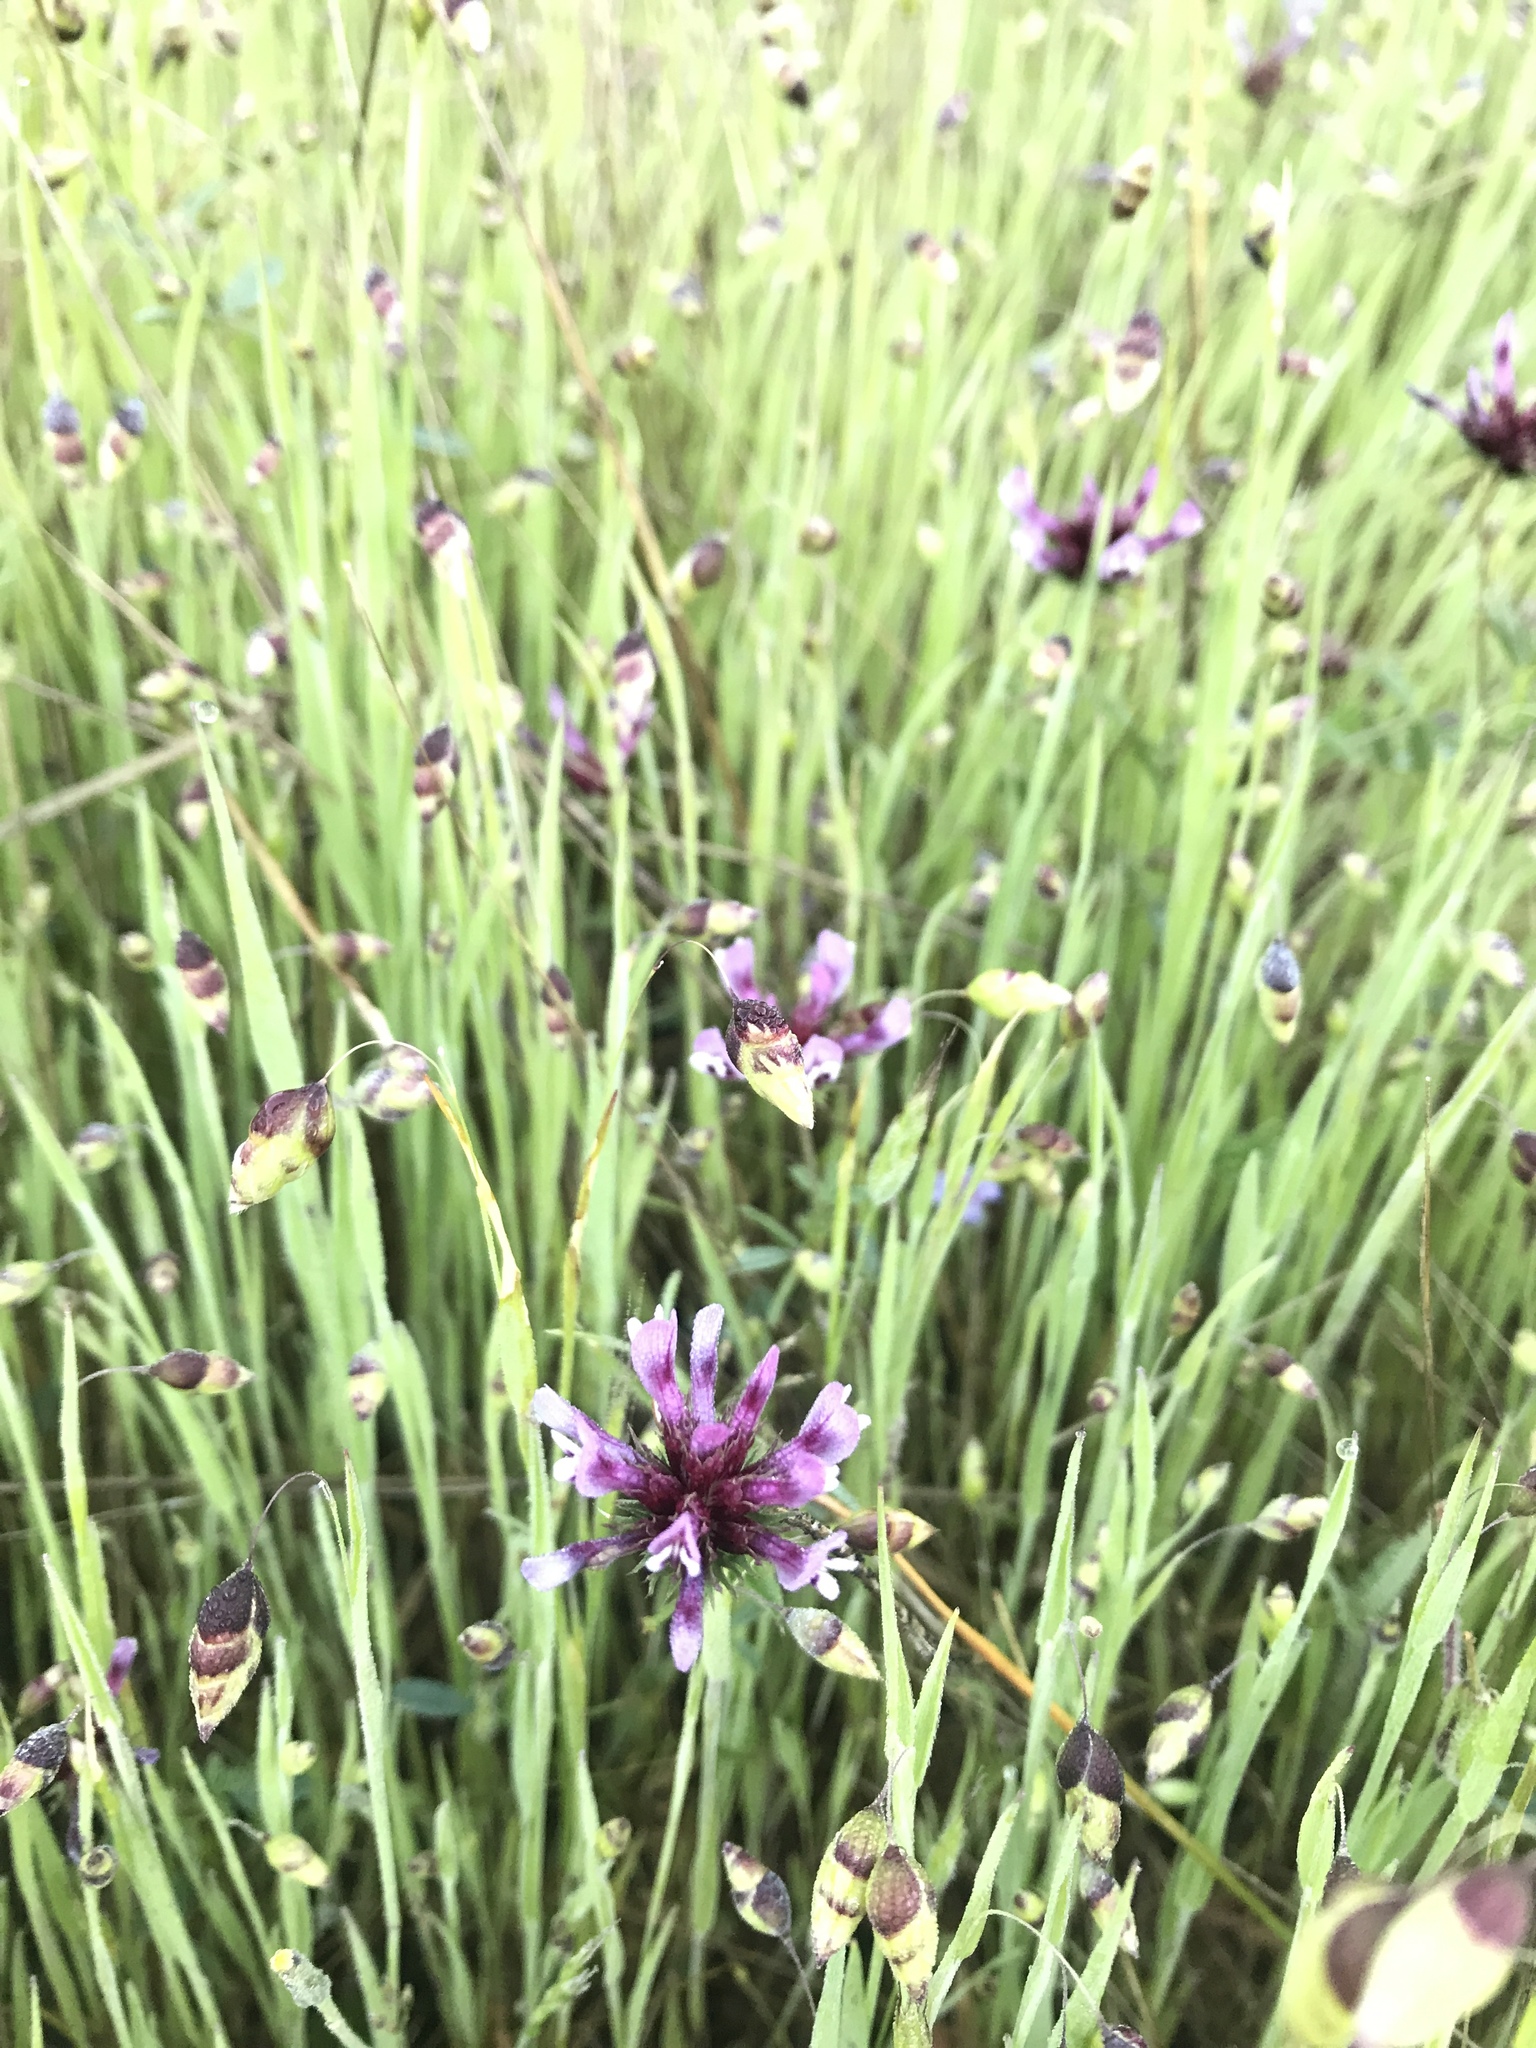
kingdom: Plantae
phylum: Tracheophyta
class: Magnoliopsida
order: Fabales
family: Fabaceae
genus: Trifolium
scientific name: Trifolium willdenovii
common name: Tomcat clover
